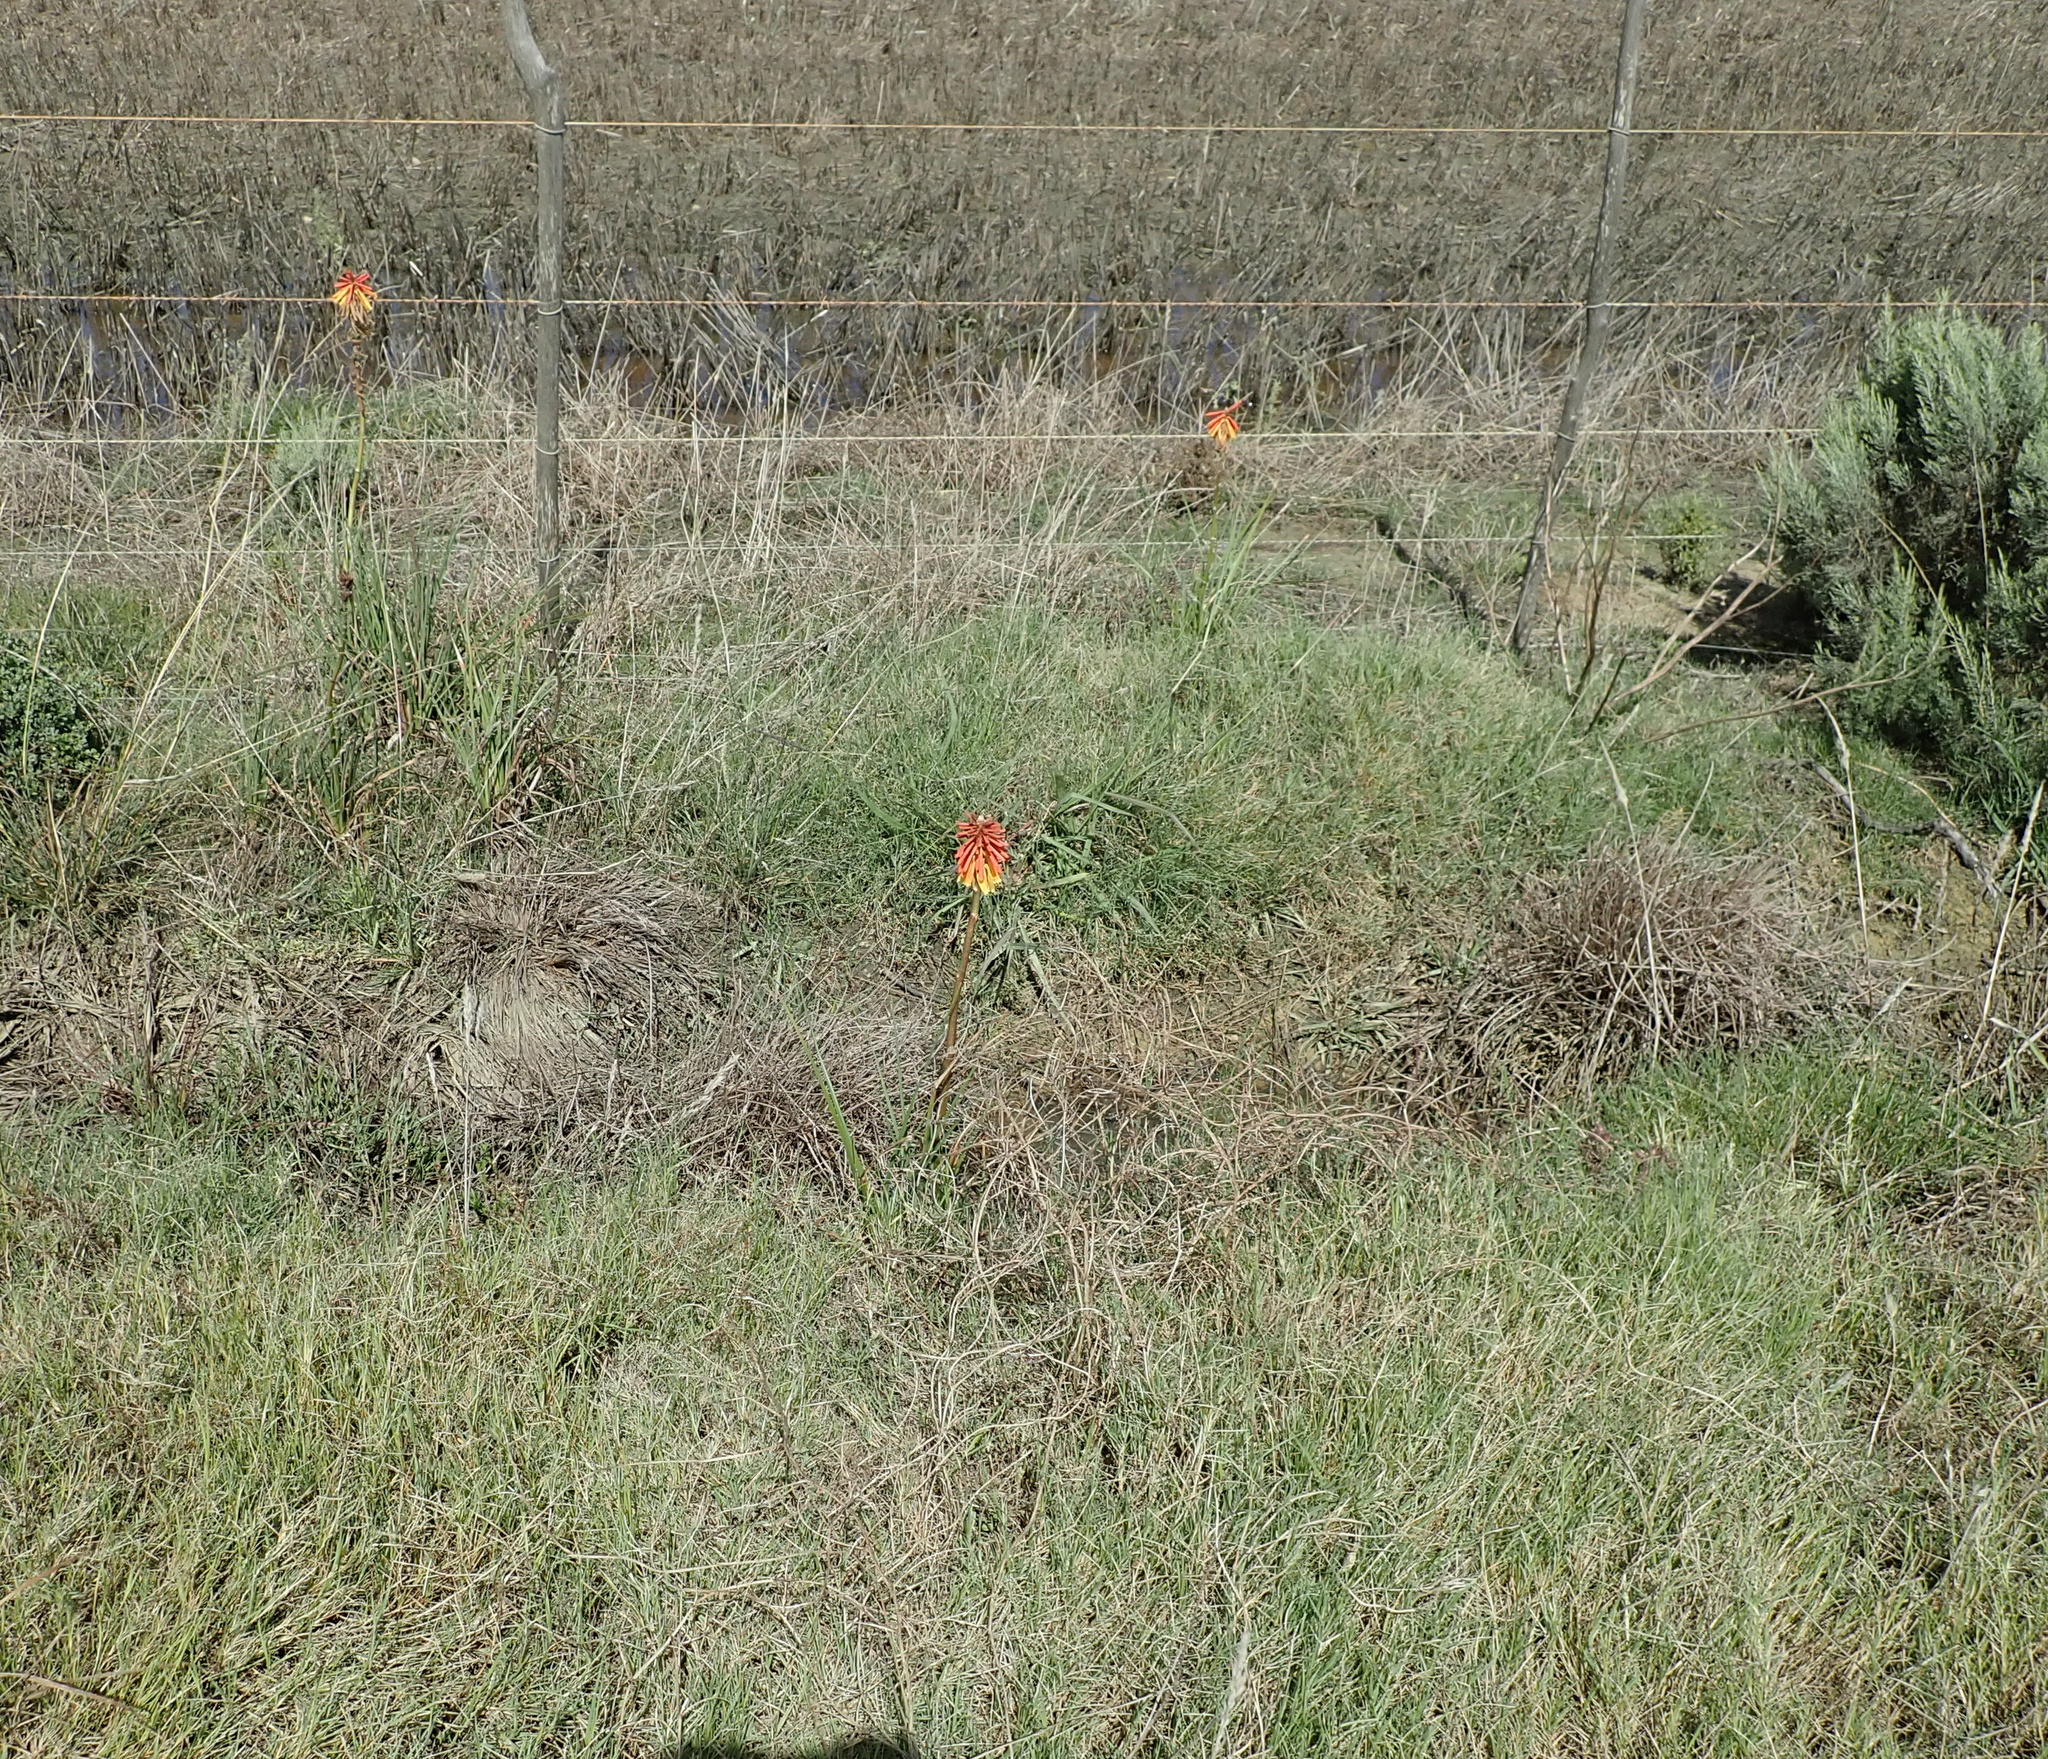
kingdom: Plantae
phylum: Tracheophyta
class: Liliopsida
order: Asparagales
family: Asphodelaceae
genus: Kniphofia
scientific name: Kniphofia uvaria
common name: Red-hot-poker
